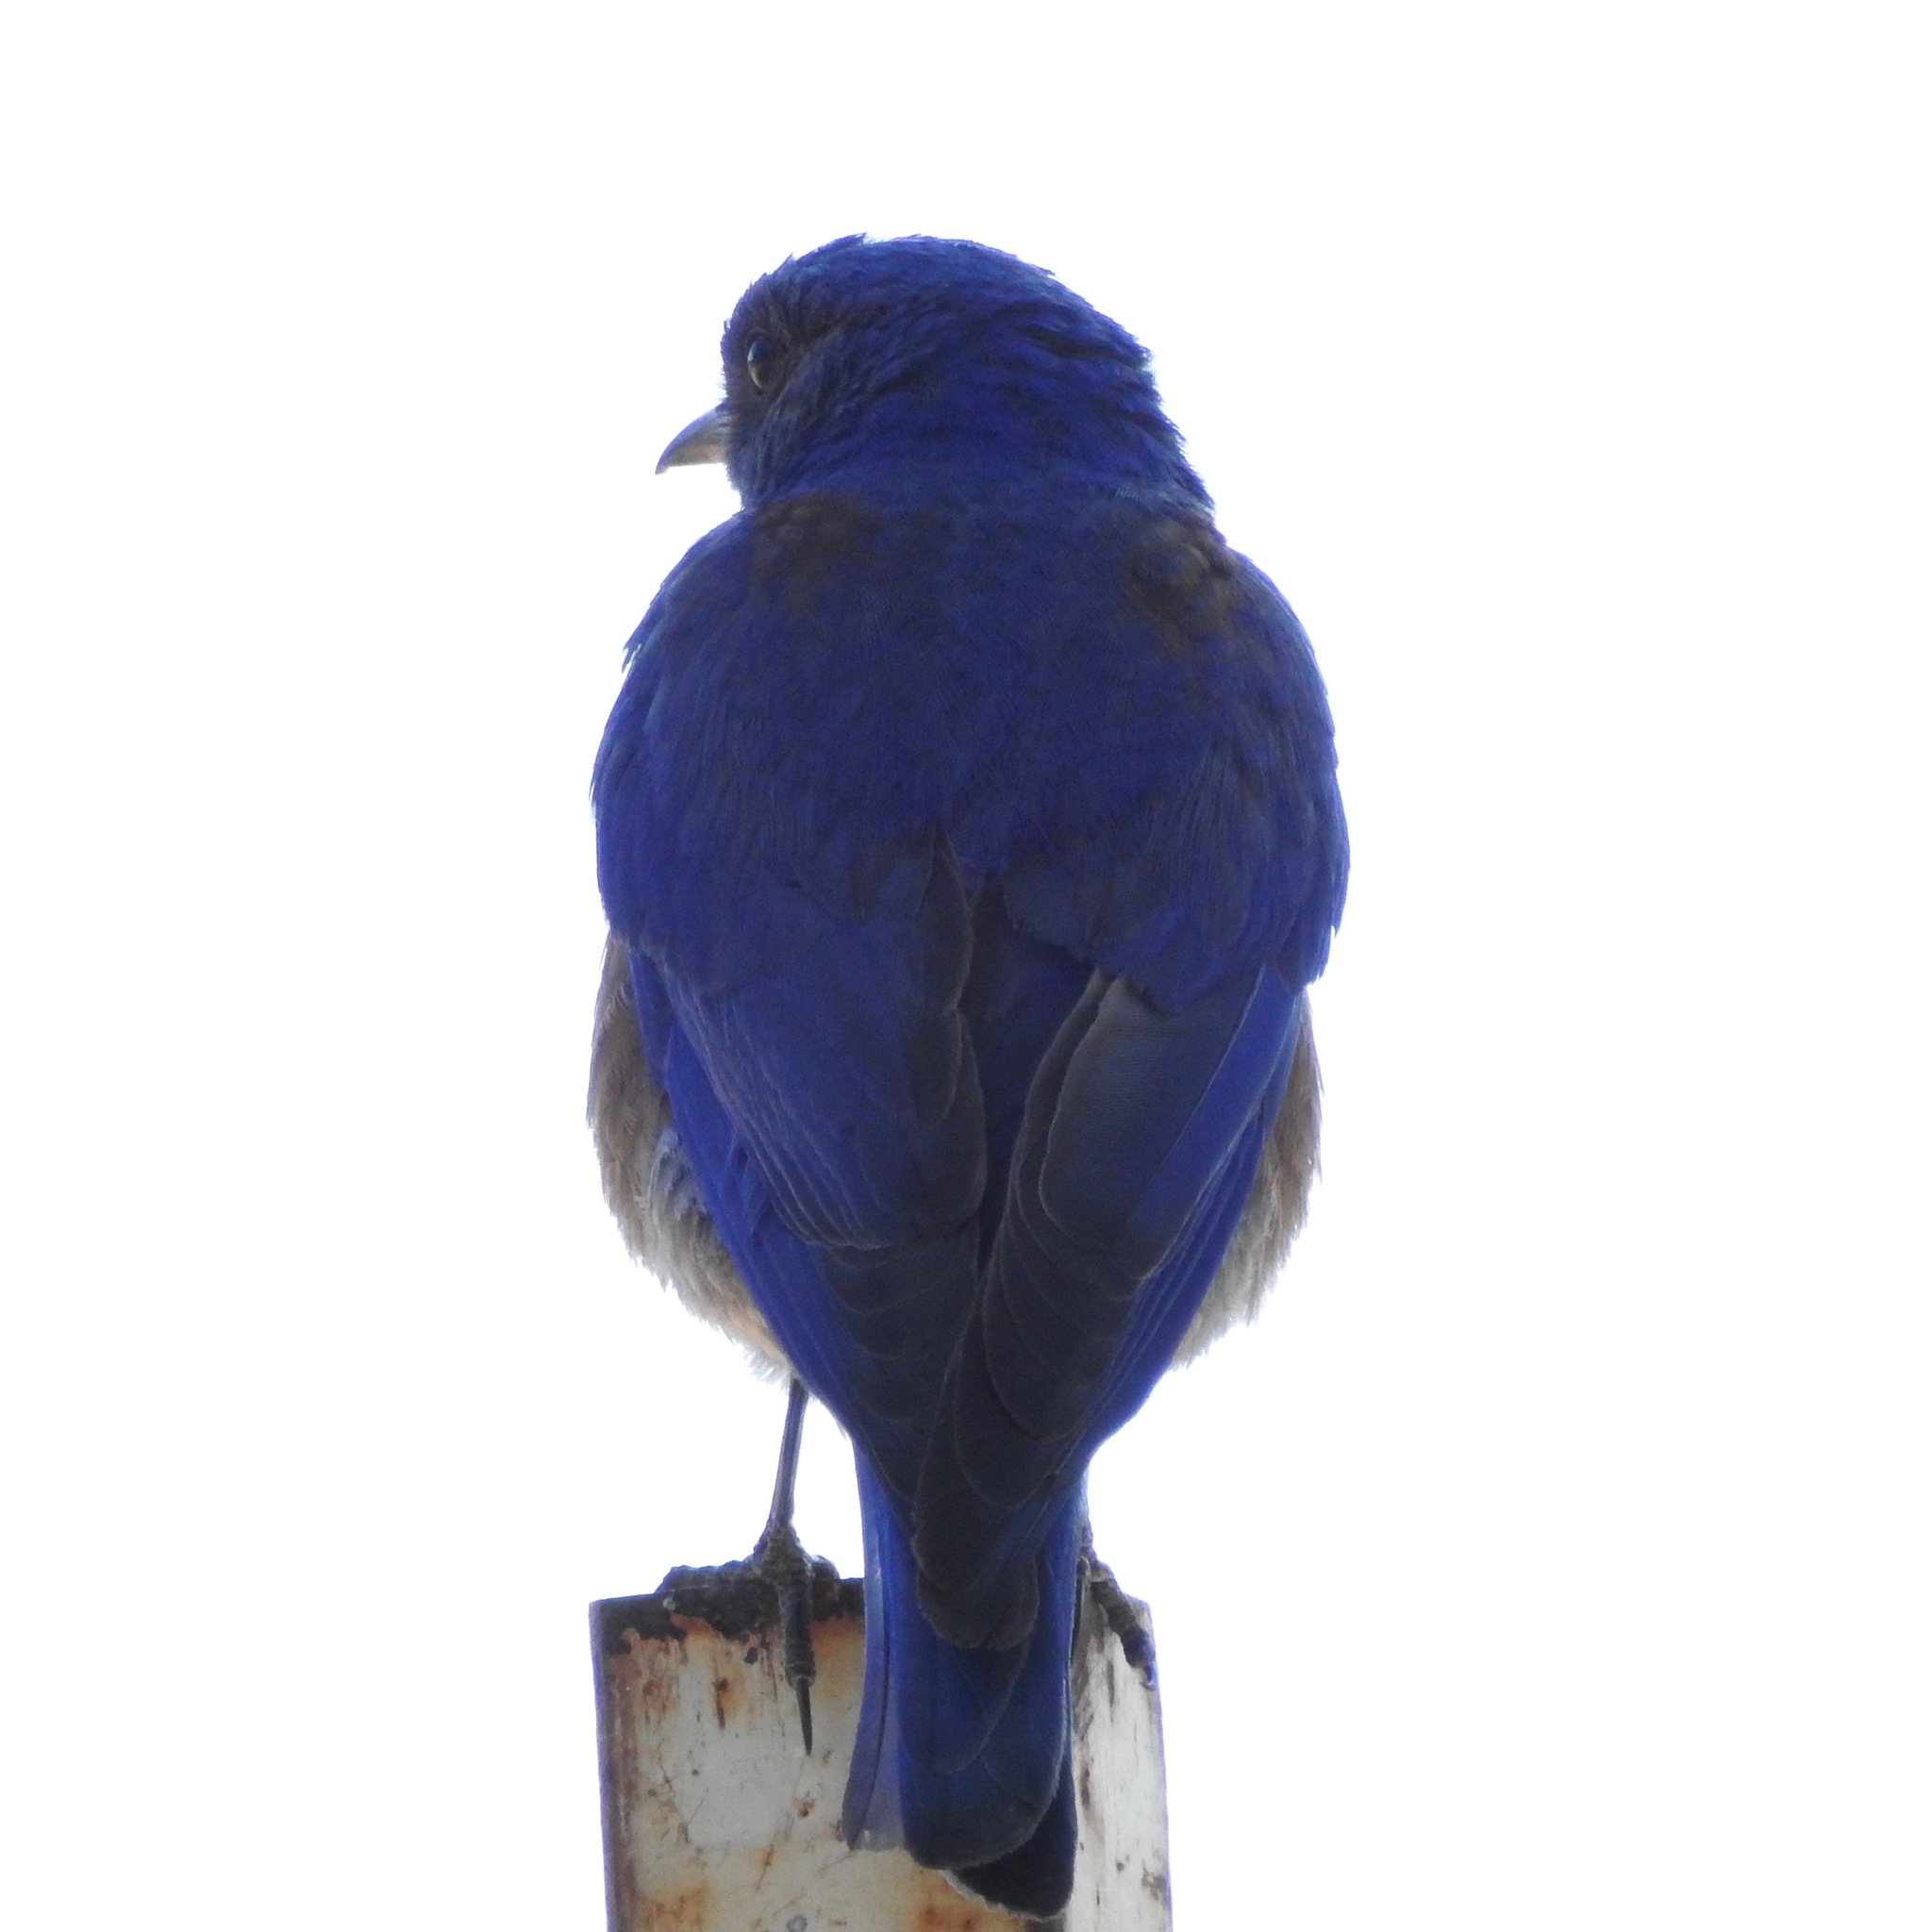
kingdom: Animalia
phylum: Chordata
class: Aves
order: Passeriformes
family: Turdidae
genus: Sialia
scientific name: Sialia mexicana
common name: Western bluebird
